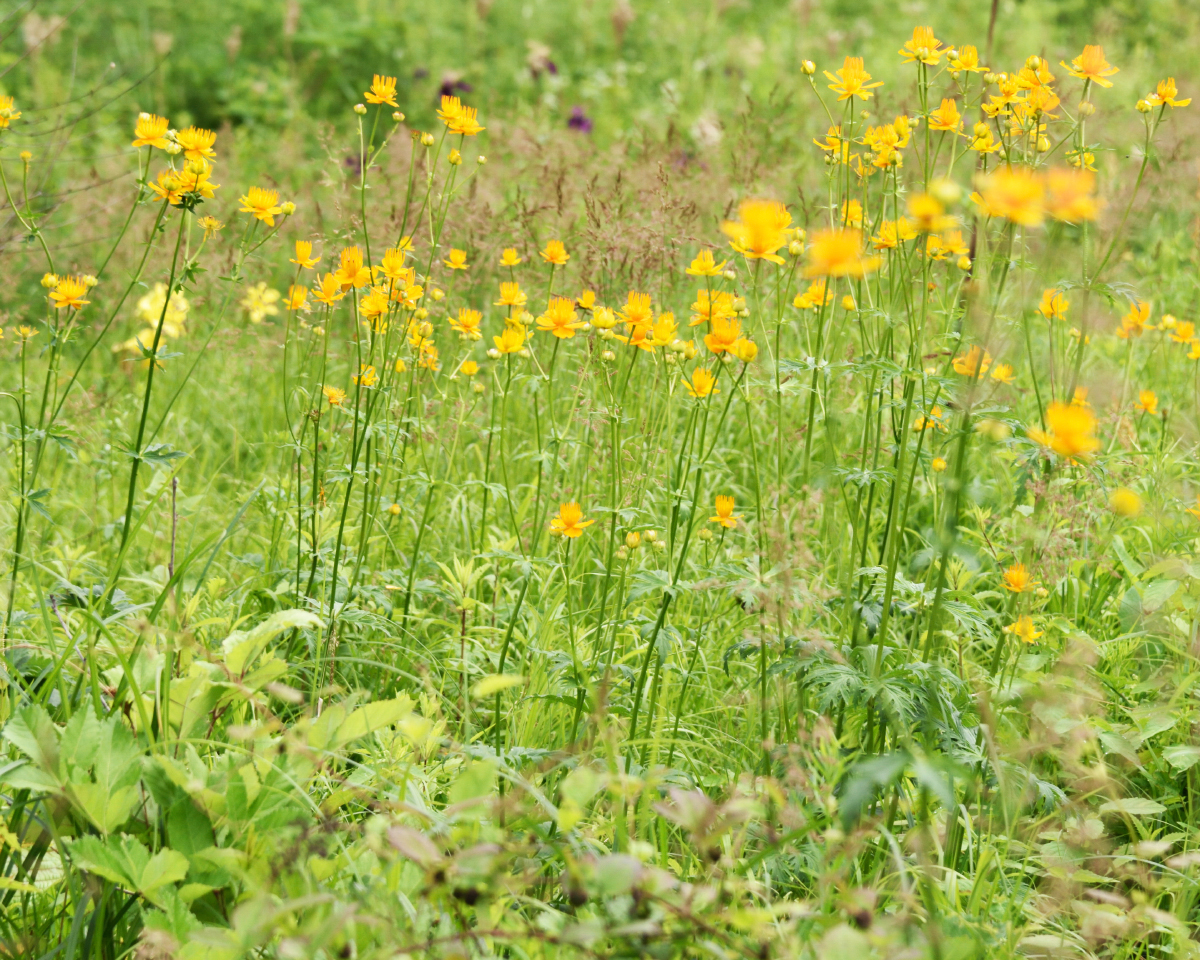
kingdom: Plantae
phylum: Tracheophyta
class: Magnoliopsida
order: Ranunculales
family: Ranunculaceae
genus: Trollius
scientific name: Trollius chinensis
